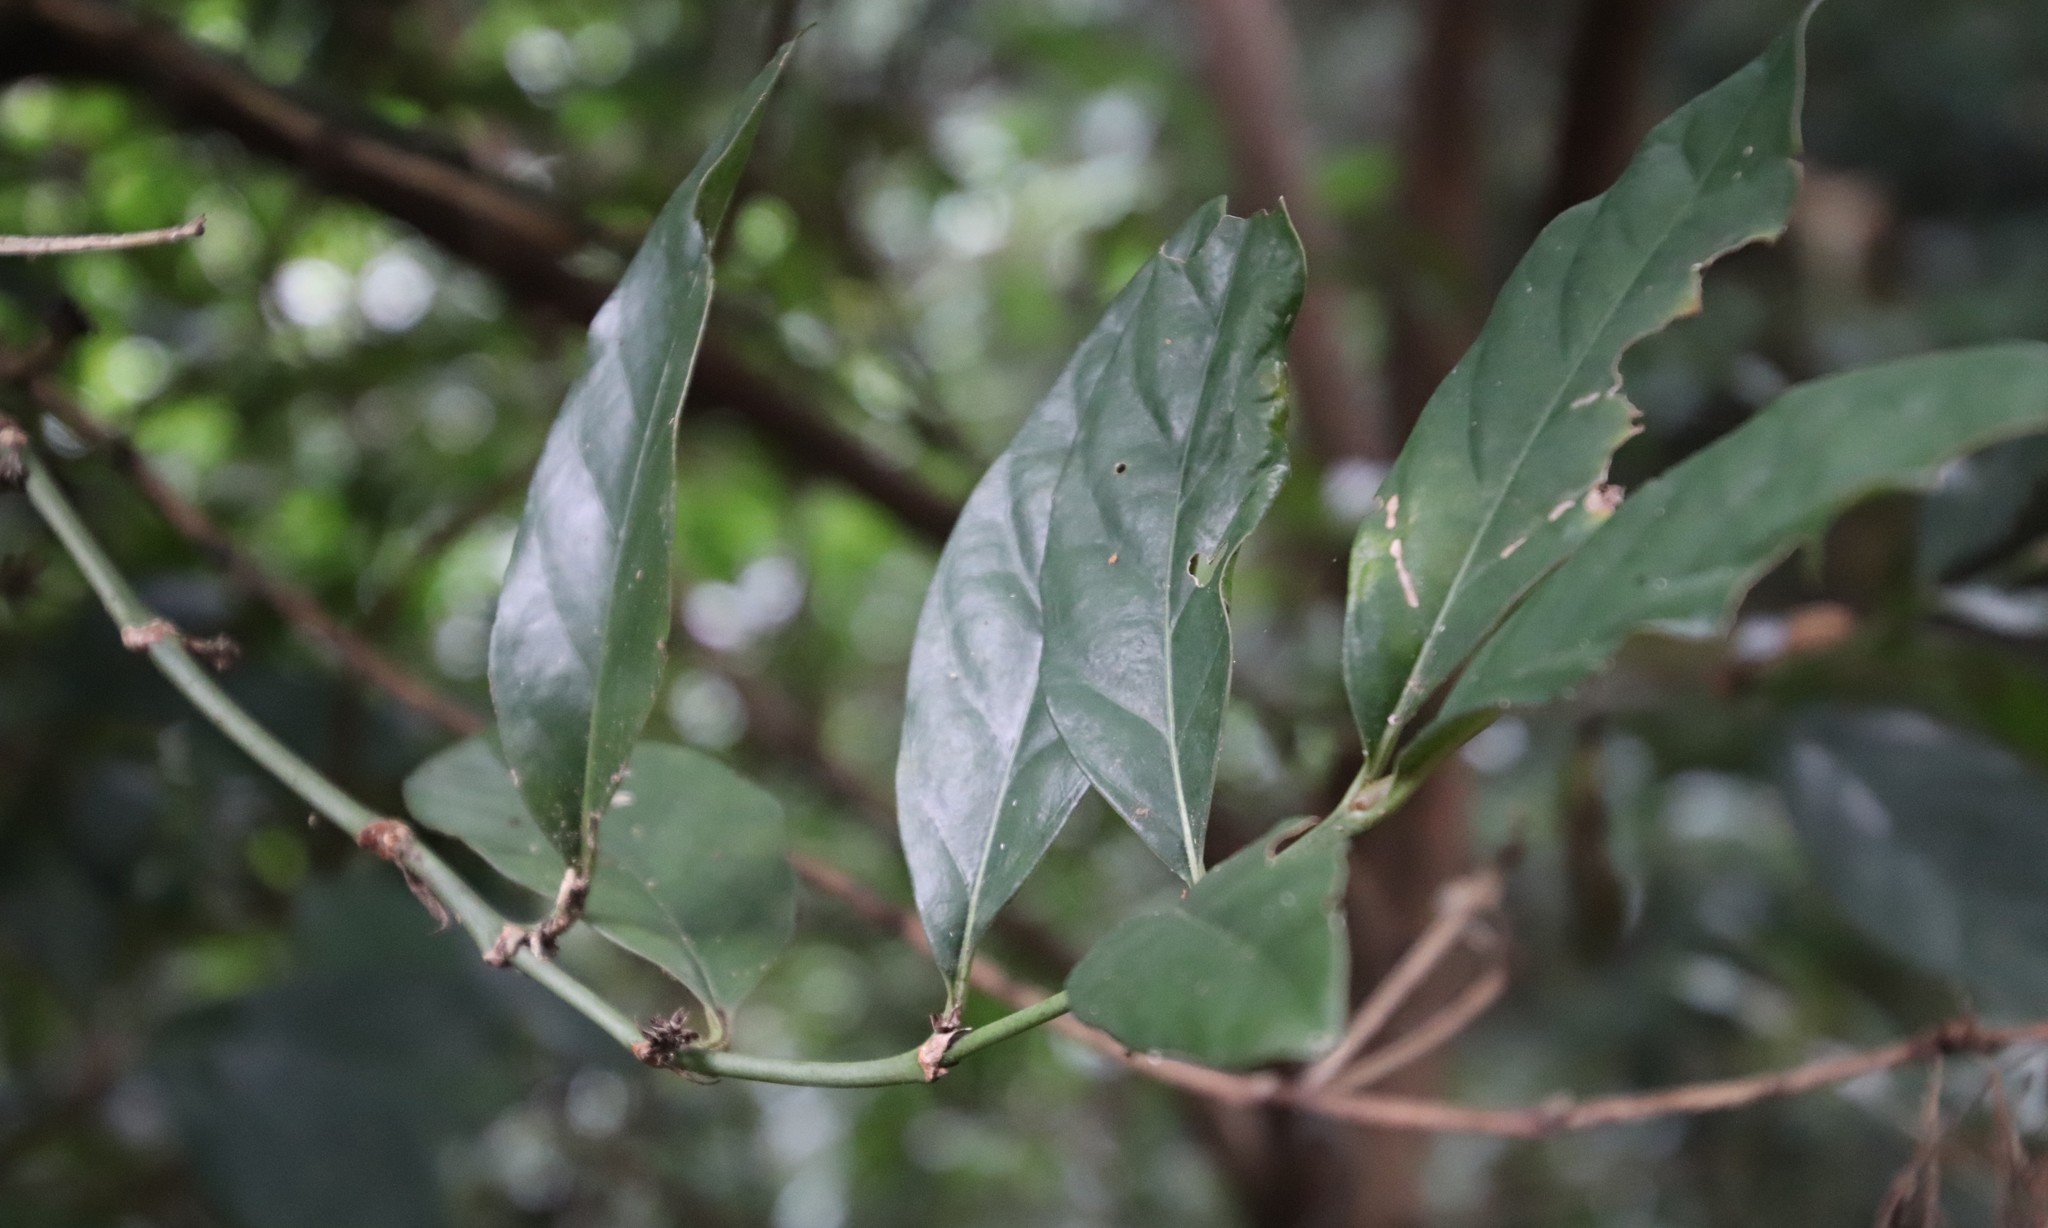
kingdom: Plantae
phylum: Tracheophyta
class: Magnoliopsida
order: Gentianales
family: Rubiaceae
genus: Mitriostigma
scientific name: Mitriostigma axillare
